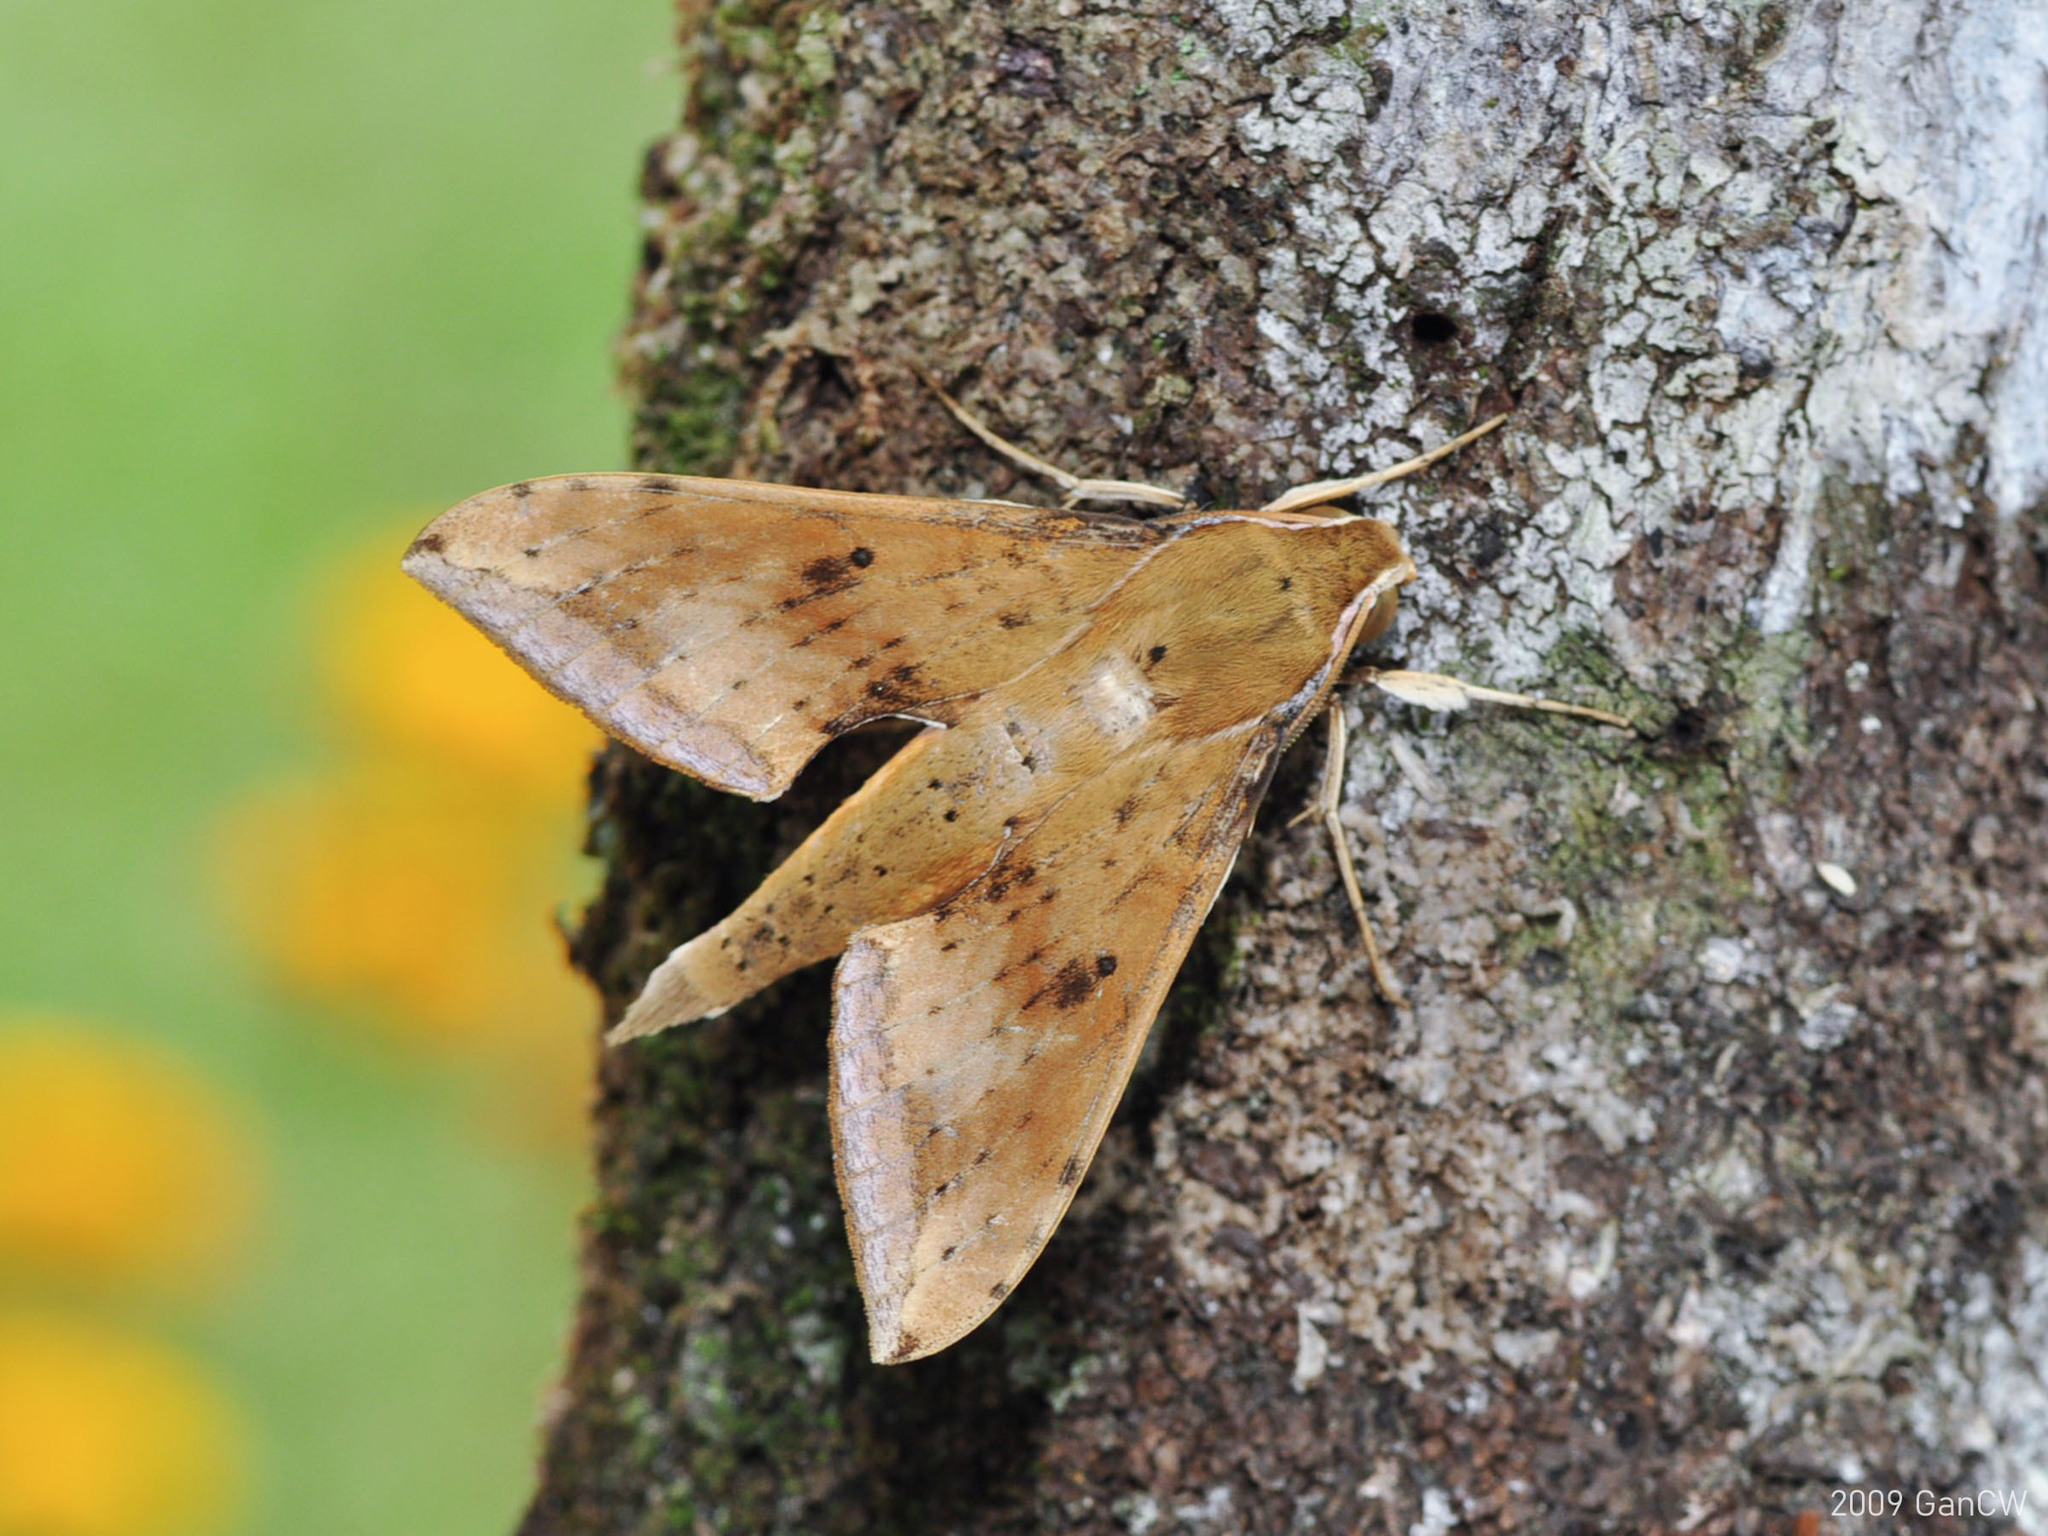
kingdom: Animalia
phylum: Arthropoda
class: Insecta
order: Lepidoptera
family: Sphingidae
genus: Rhagastis
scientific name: Rhagastis castor
